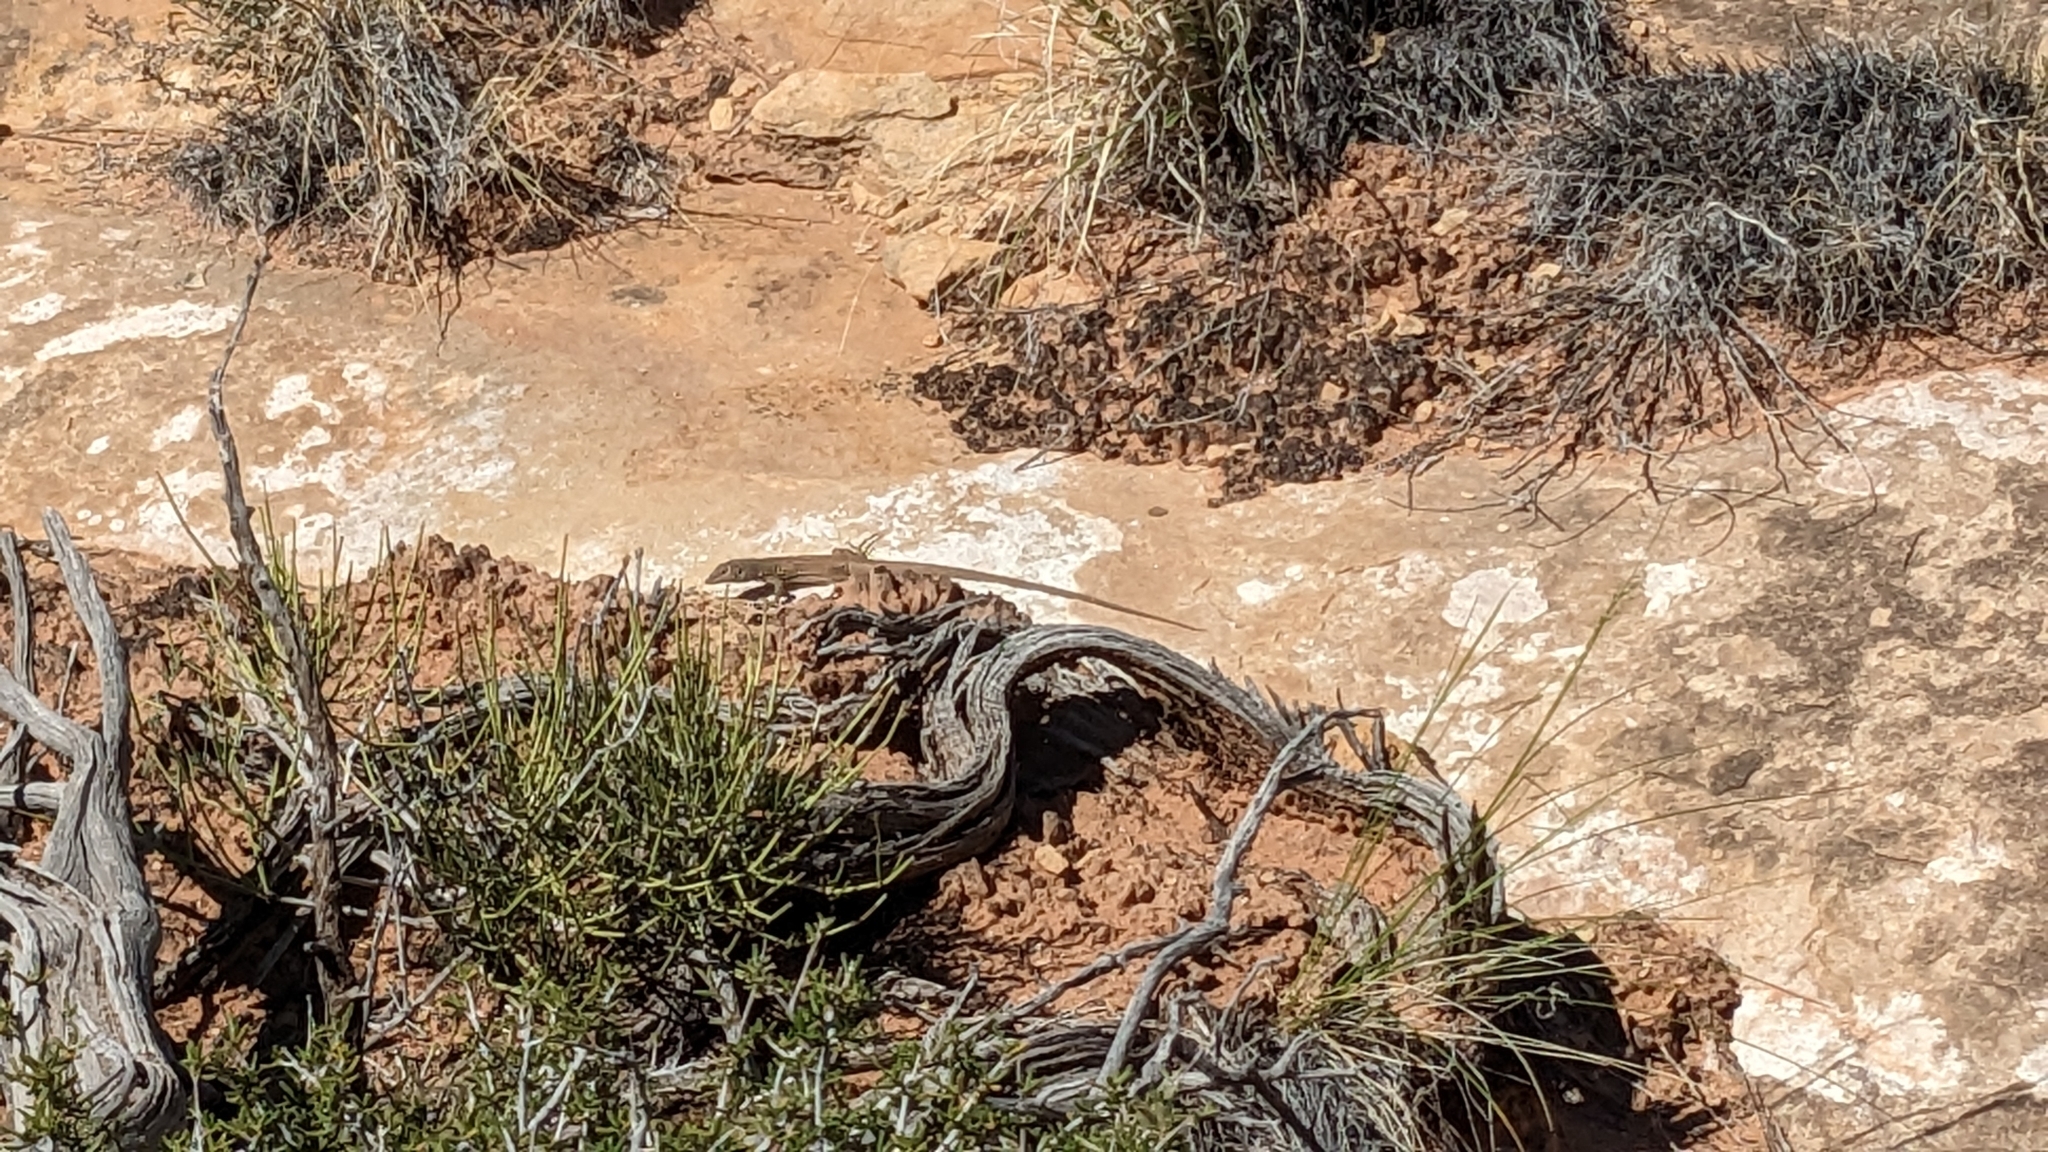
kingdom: Animalia
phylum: Chordata
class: Squamata
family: Teiidae
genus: Aspidoscelis
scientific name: Aspidoscelis tigris
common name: Tiger whiptail
